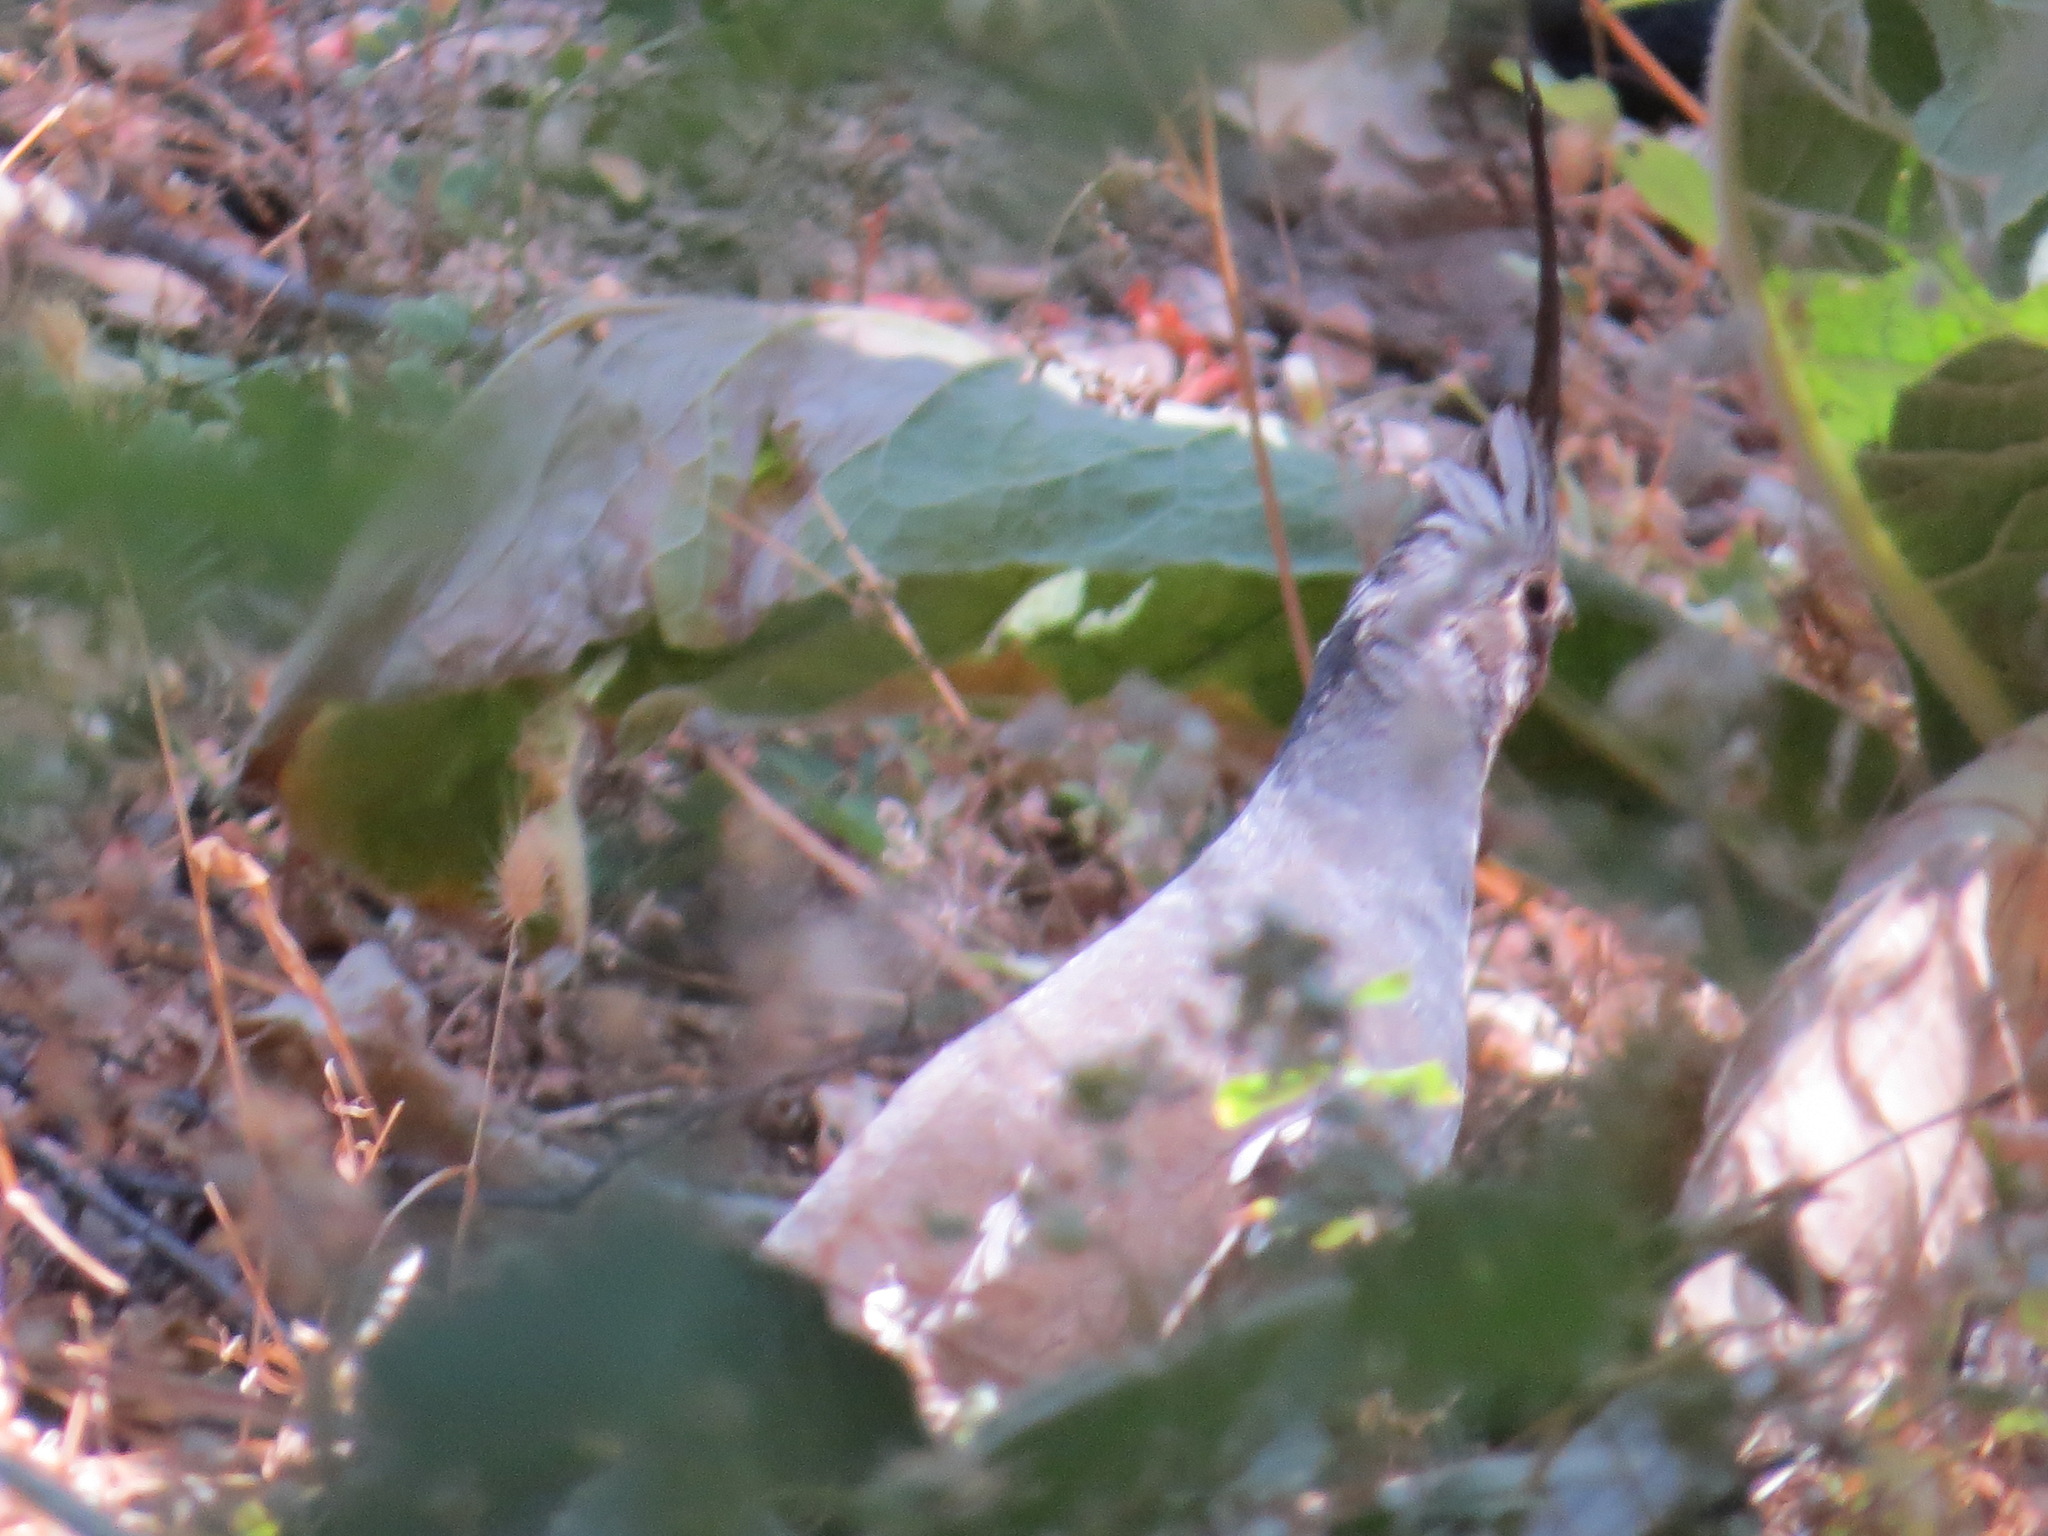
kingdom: Animalia
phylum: Chordata
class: Aves
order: Galliformes
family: Odontophoridae
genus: Oreortyx
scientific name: Oreortyx pictus
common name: Mountain quail
